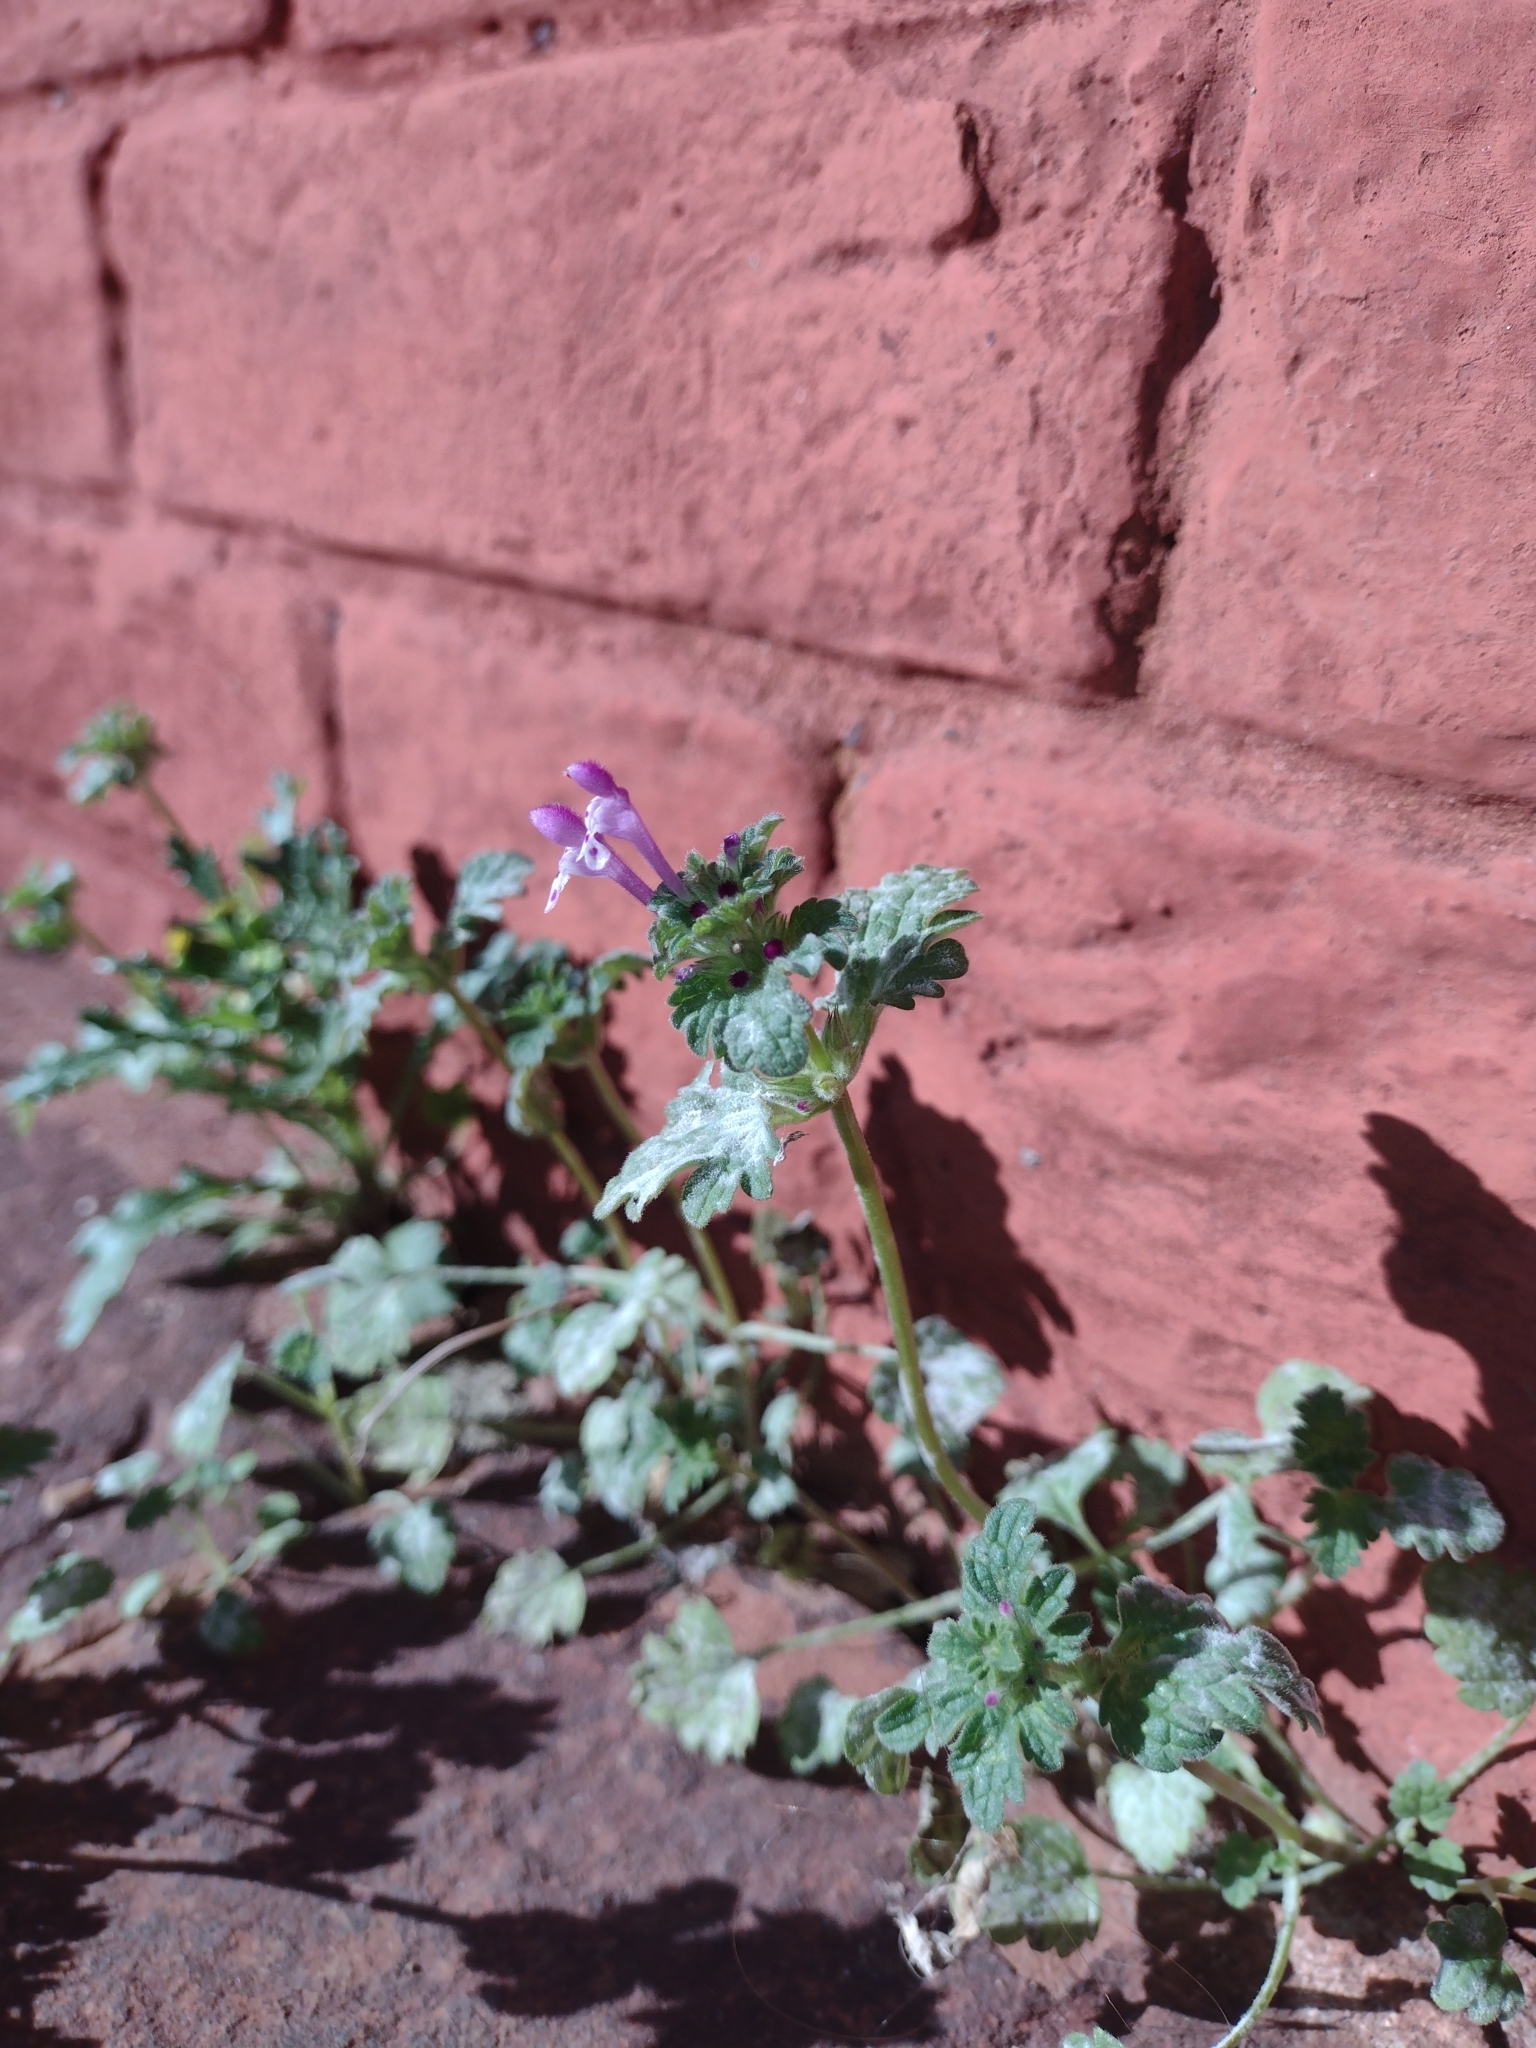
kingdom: Plantae
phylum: Tracheophyta
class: Magnoliopsida
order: Lamiales
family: Lamiaceae
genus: Lamium
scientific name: Lamium amplexicaule
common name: Henbit dead-nettle
